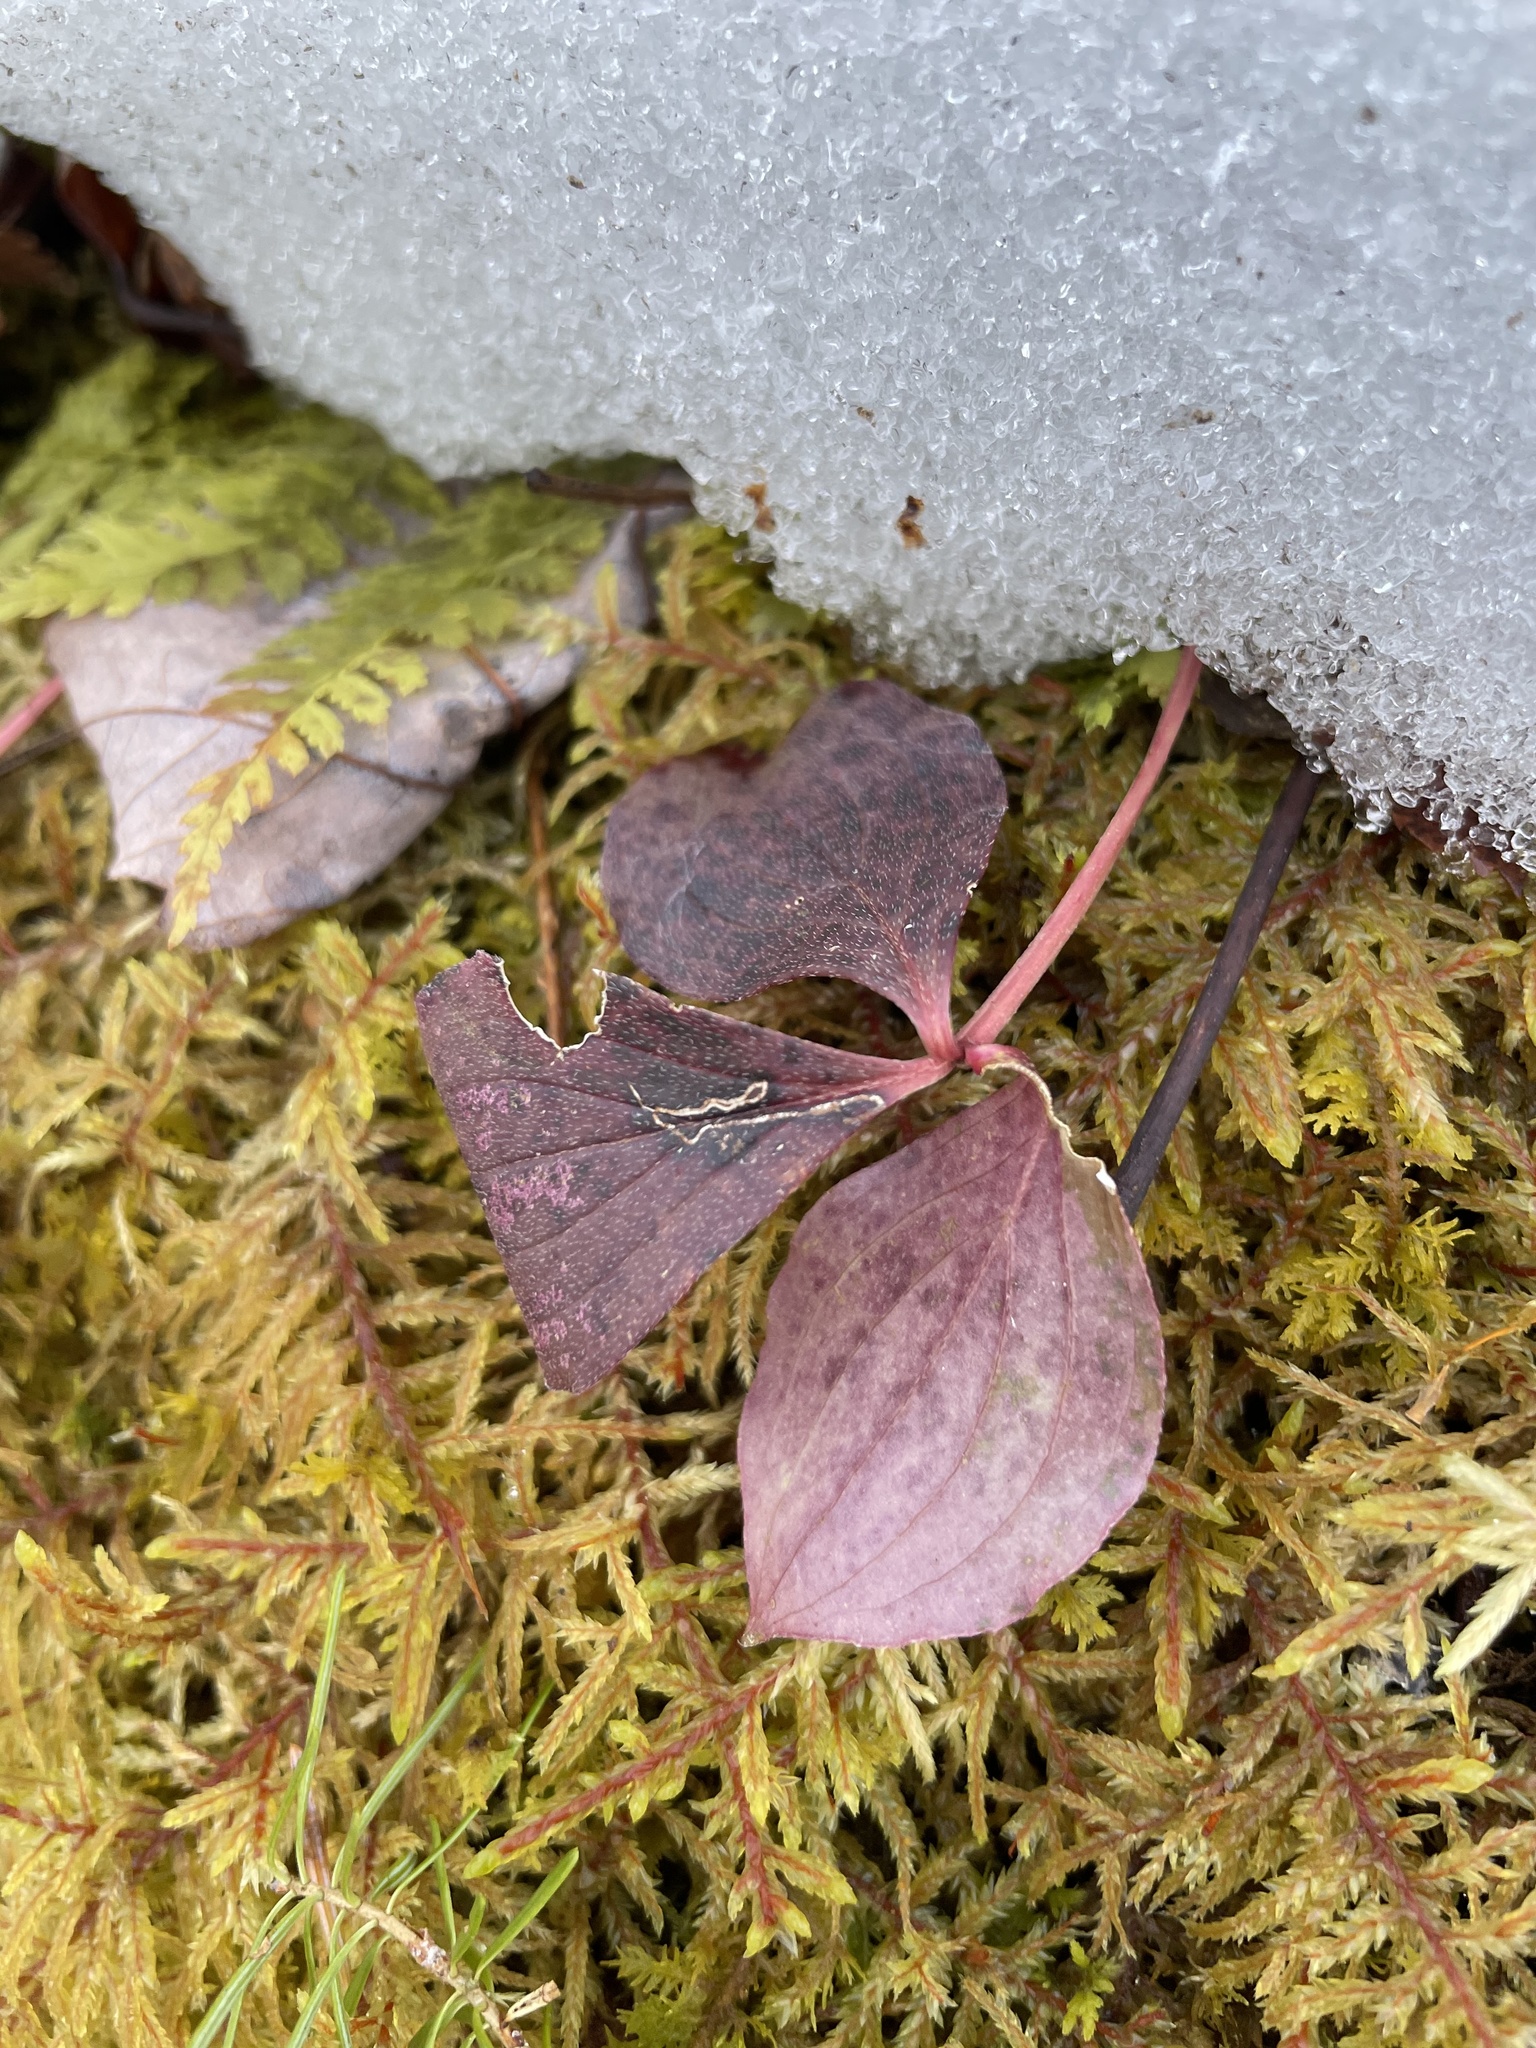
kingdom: Plantae
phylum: Tracheophyta
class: Magnoliopsida
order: Cornales
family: Cornaceae
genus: Cornus
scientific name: Cornus canadensis
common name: Creeping dogwood
